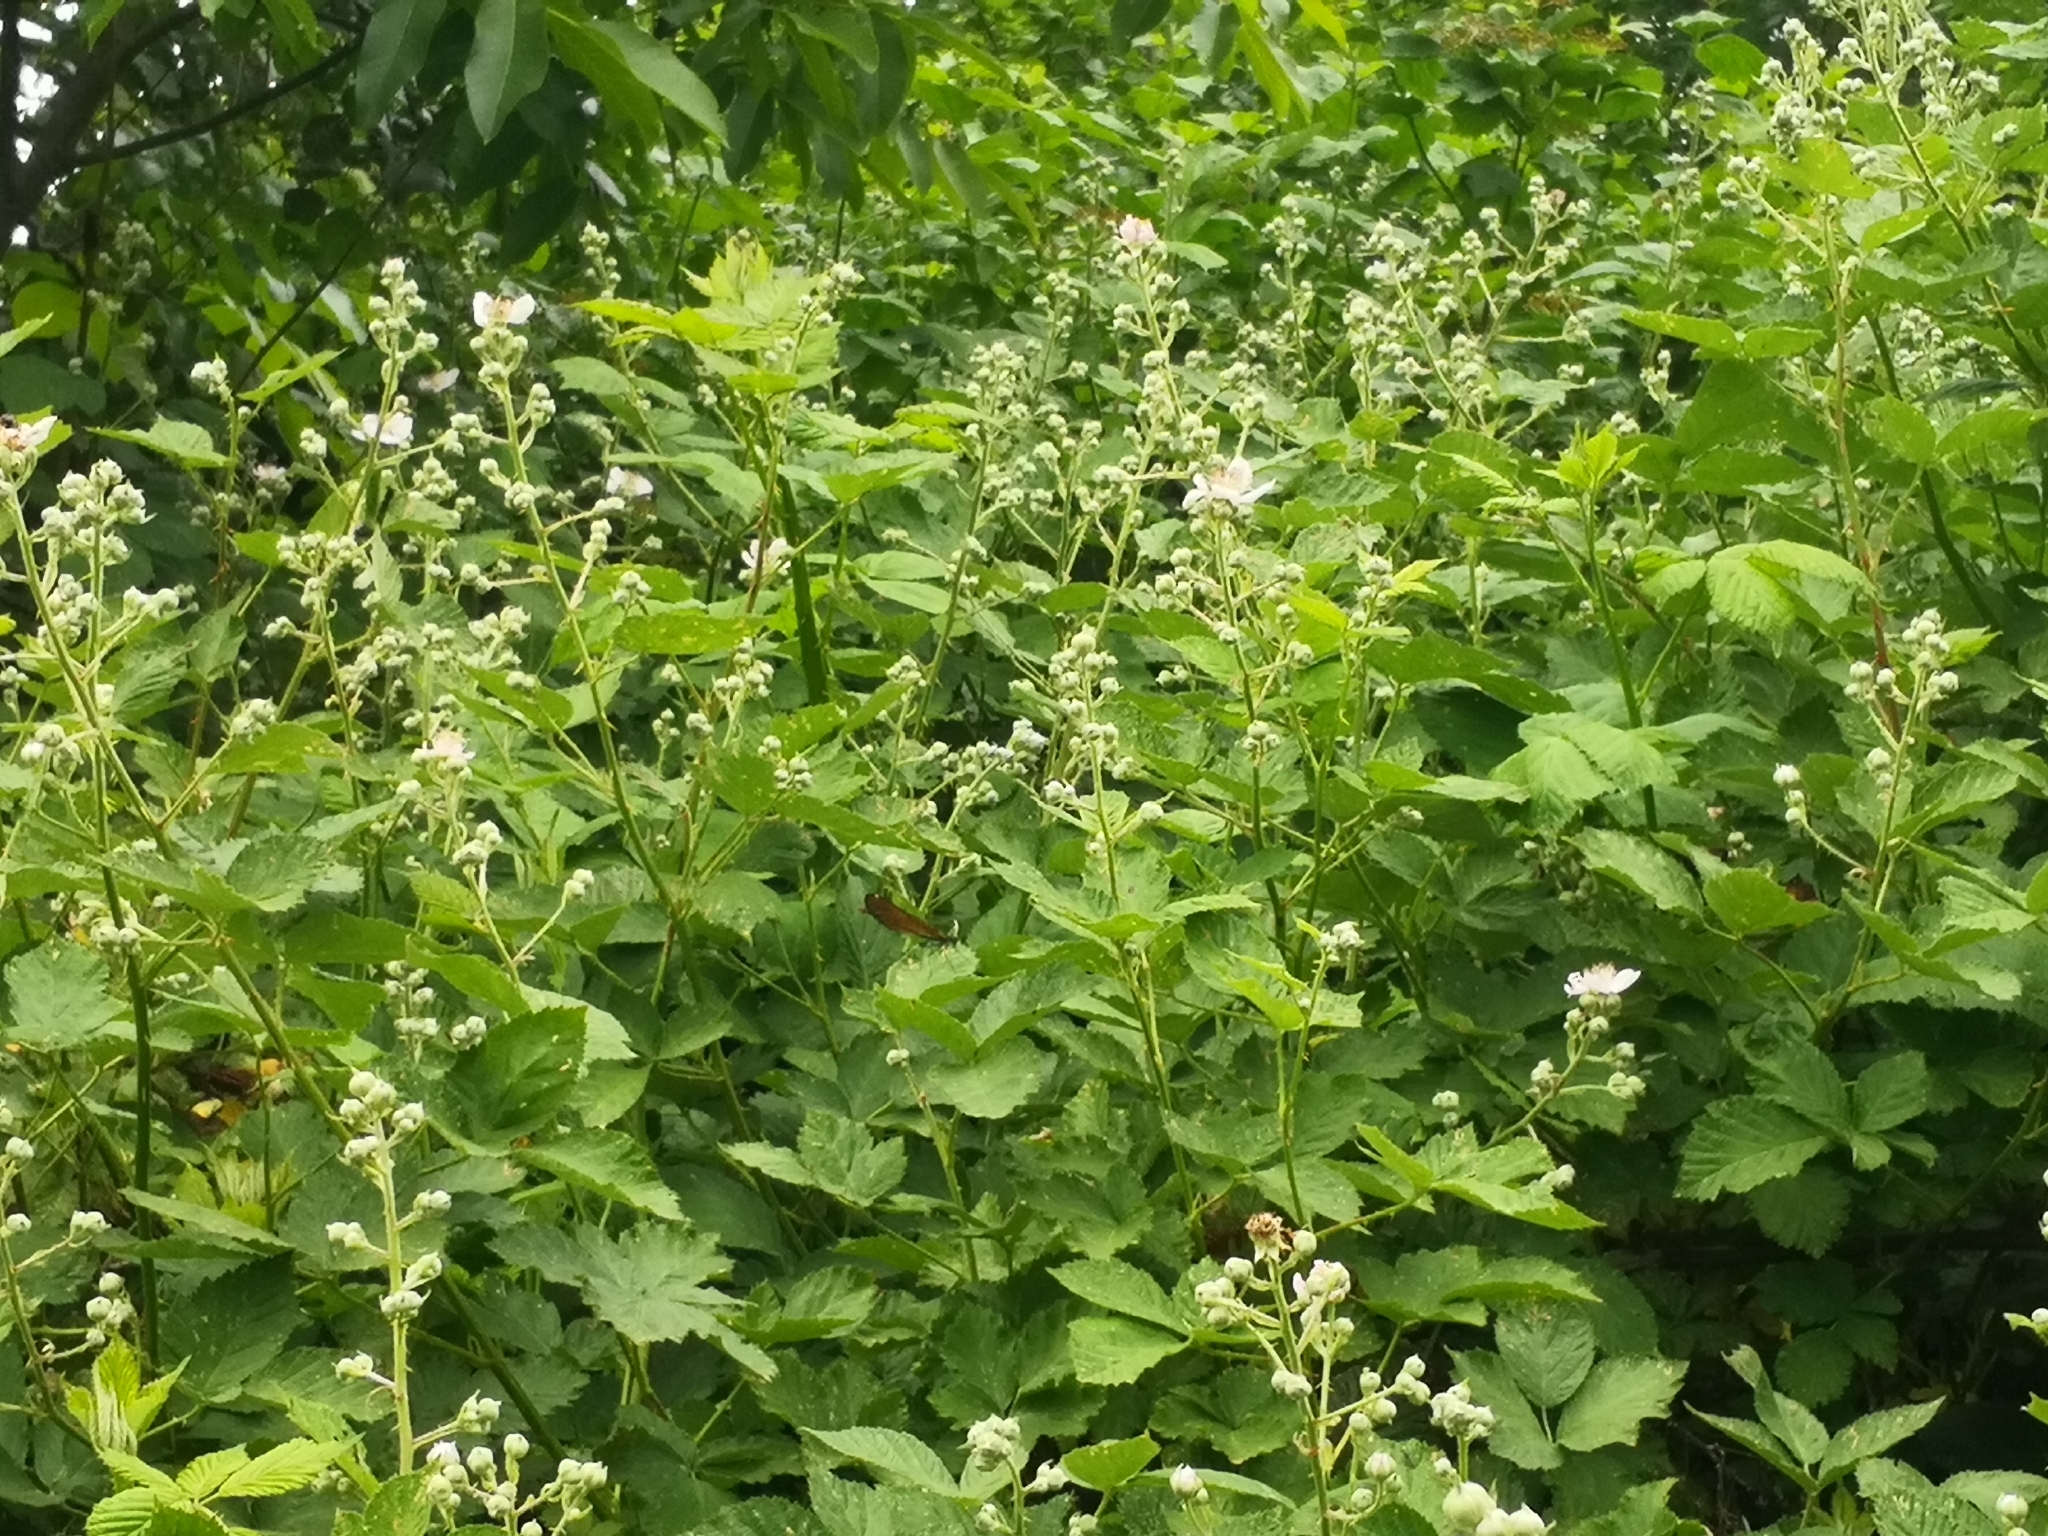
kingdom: Animalia
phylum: Arthropoda
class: Insecta
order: Odonata
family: Calopterygidae
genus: Calopteryx
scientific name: Calopteryx virgo
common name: Beautiful demoiselle
